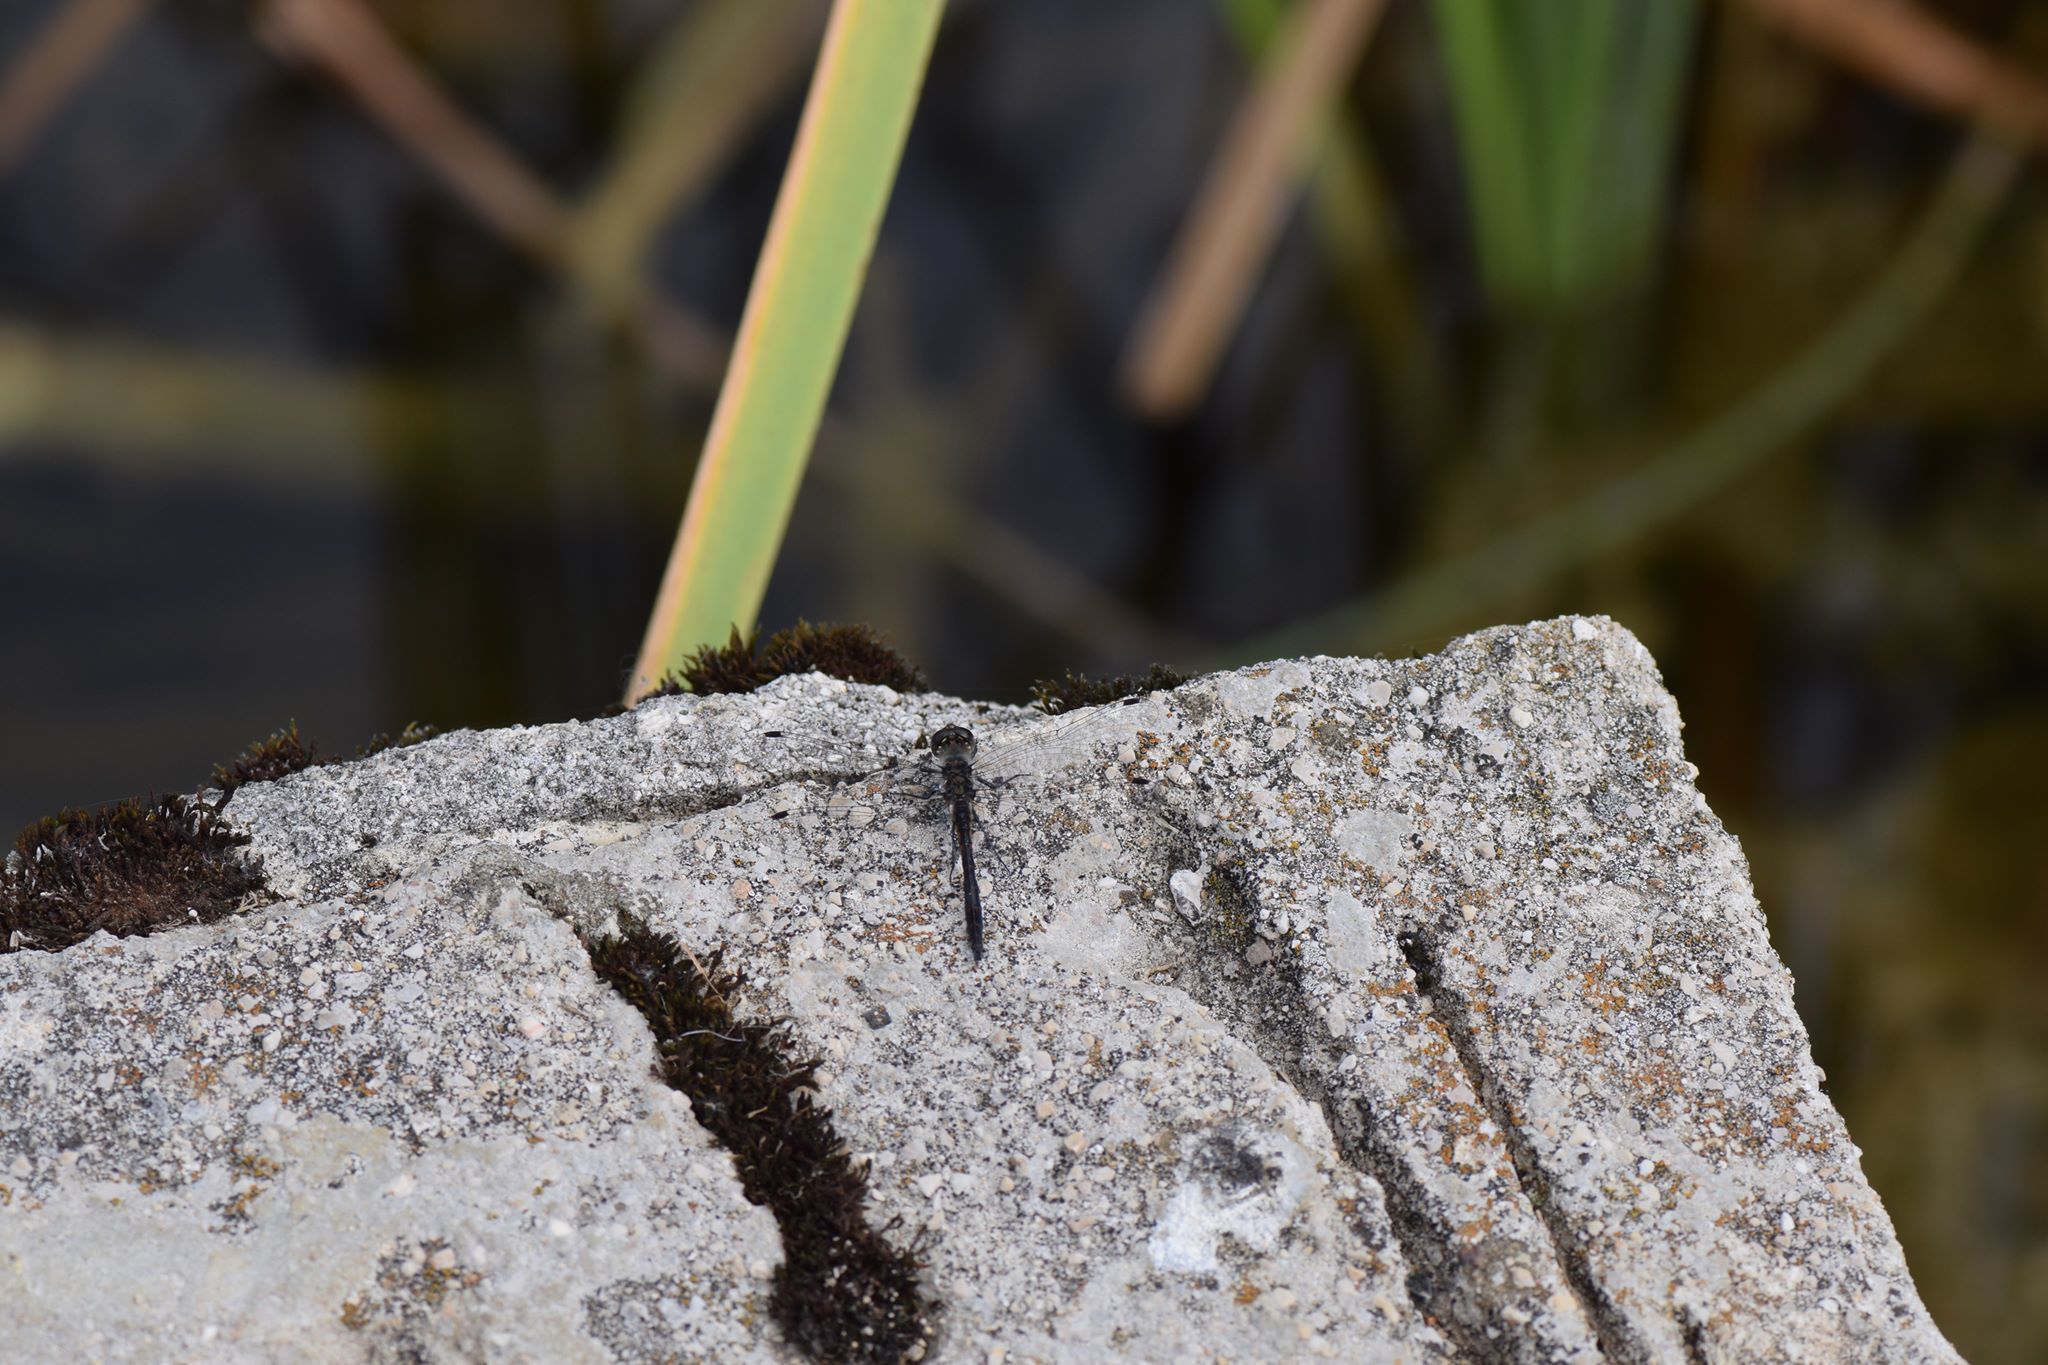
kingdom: Animalia
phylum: Arthropoda
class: Insecta
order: Odonata
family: Libellulidae
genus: Sympetrum
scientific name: Sympetrum danae
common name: Black darter
